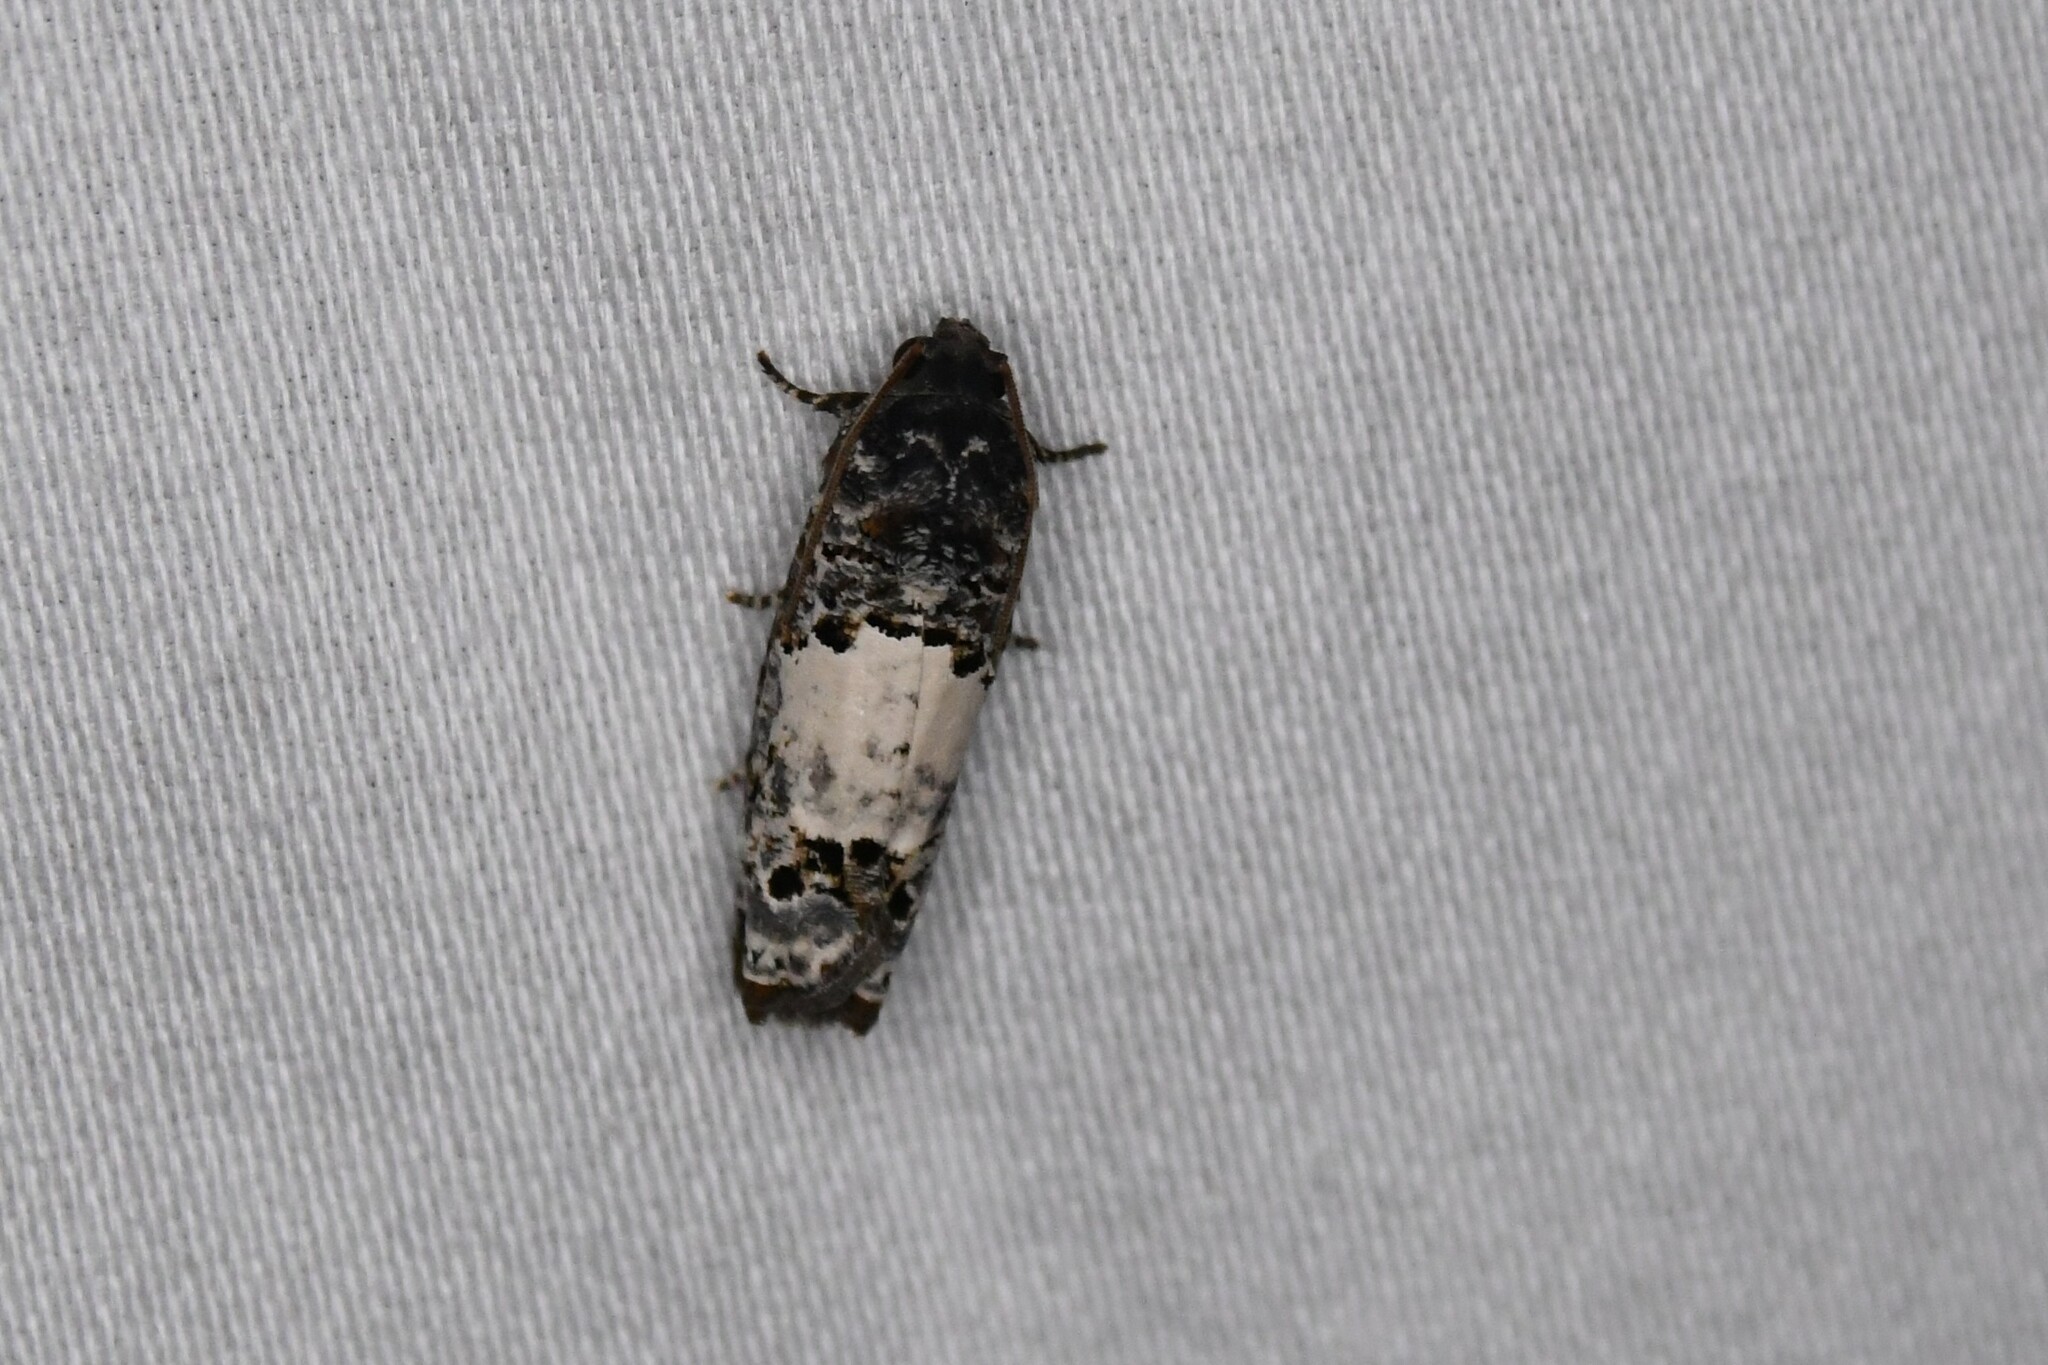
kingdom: Animalia
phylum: Arthropoda
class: Insecta
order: Lepidoptera
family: Tortricidae
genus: Epiblema
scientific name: Epiblema carolinana
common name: Gray-blotched epiblema moth
